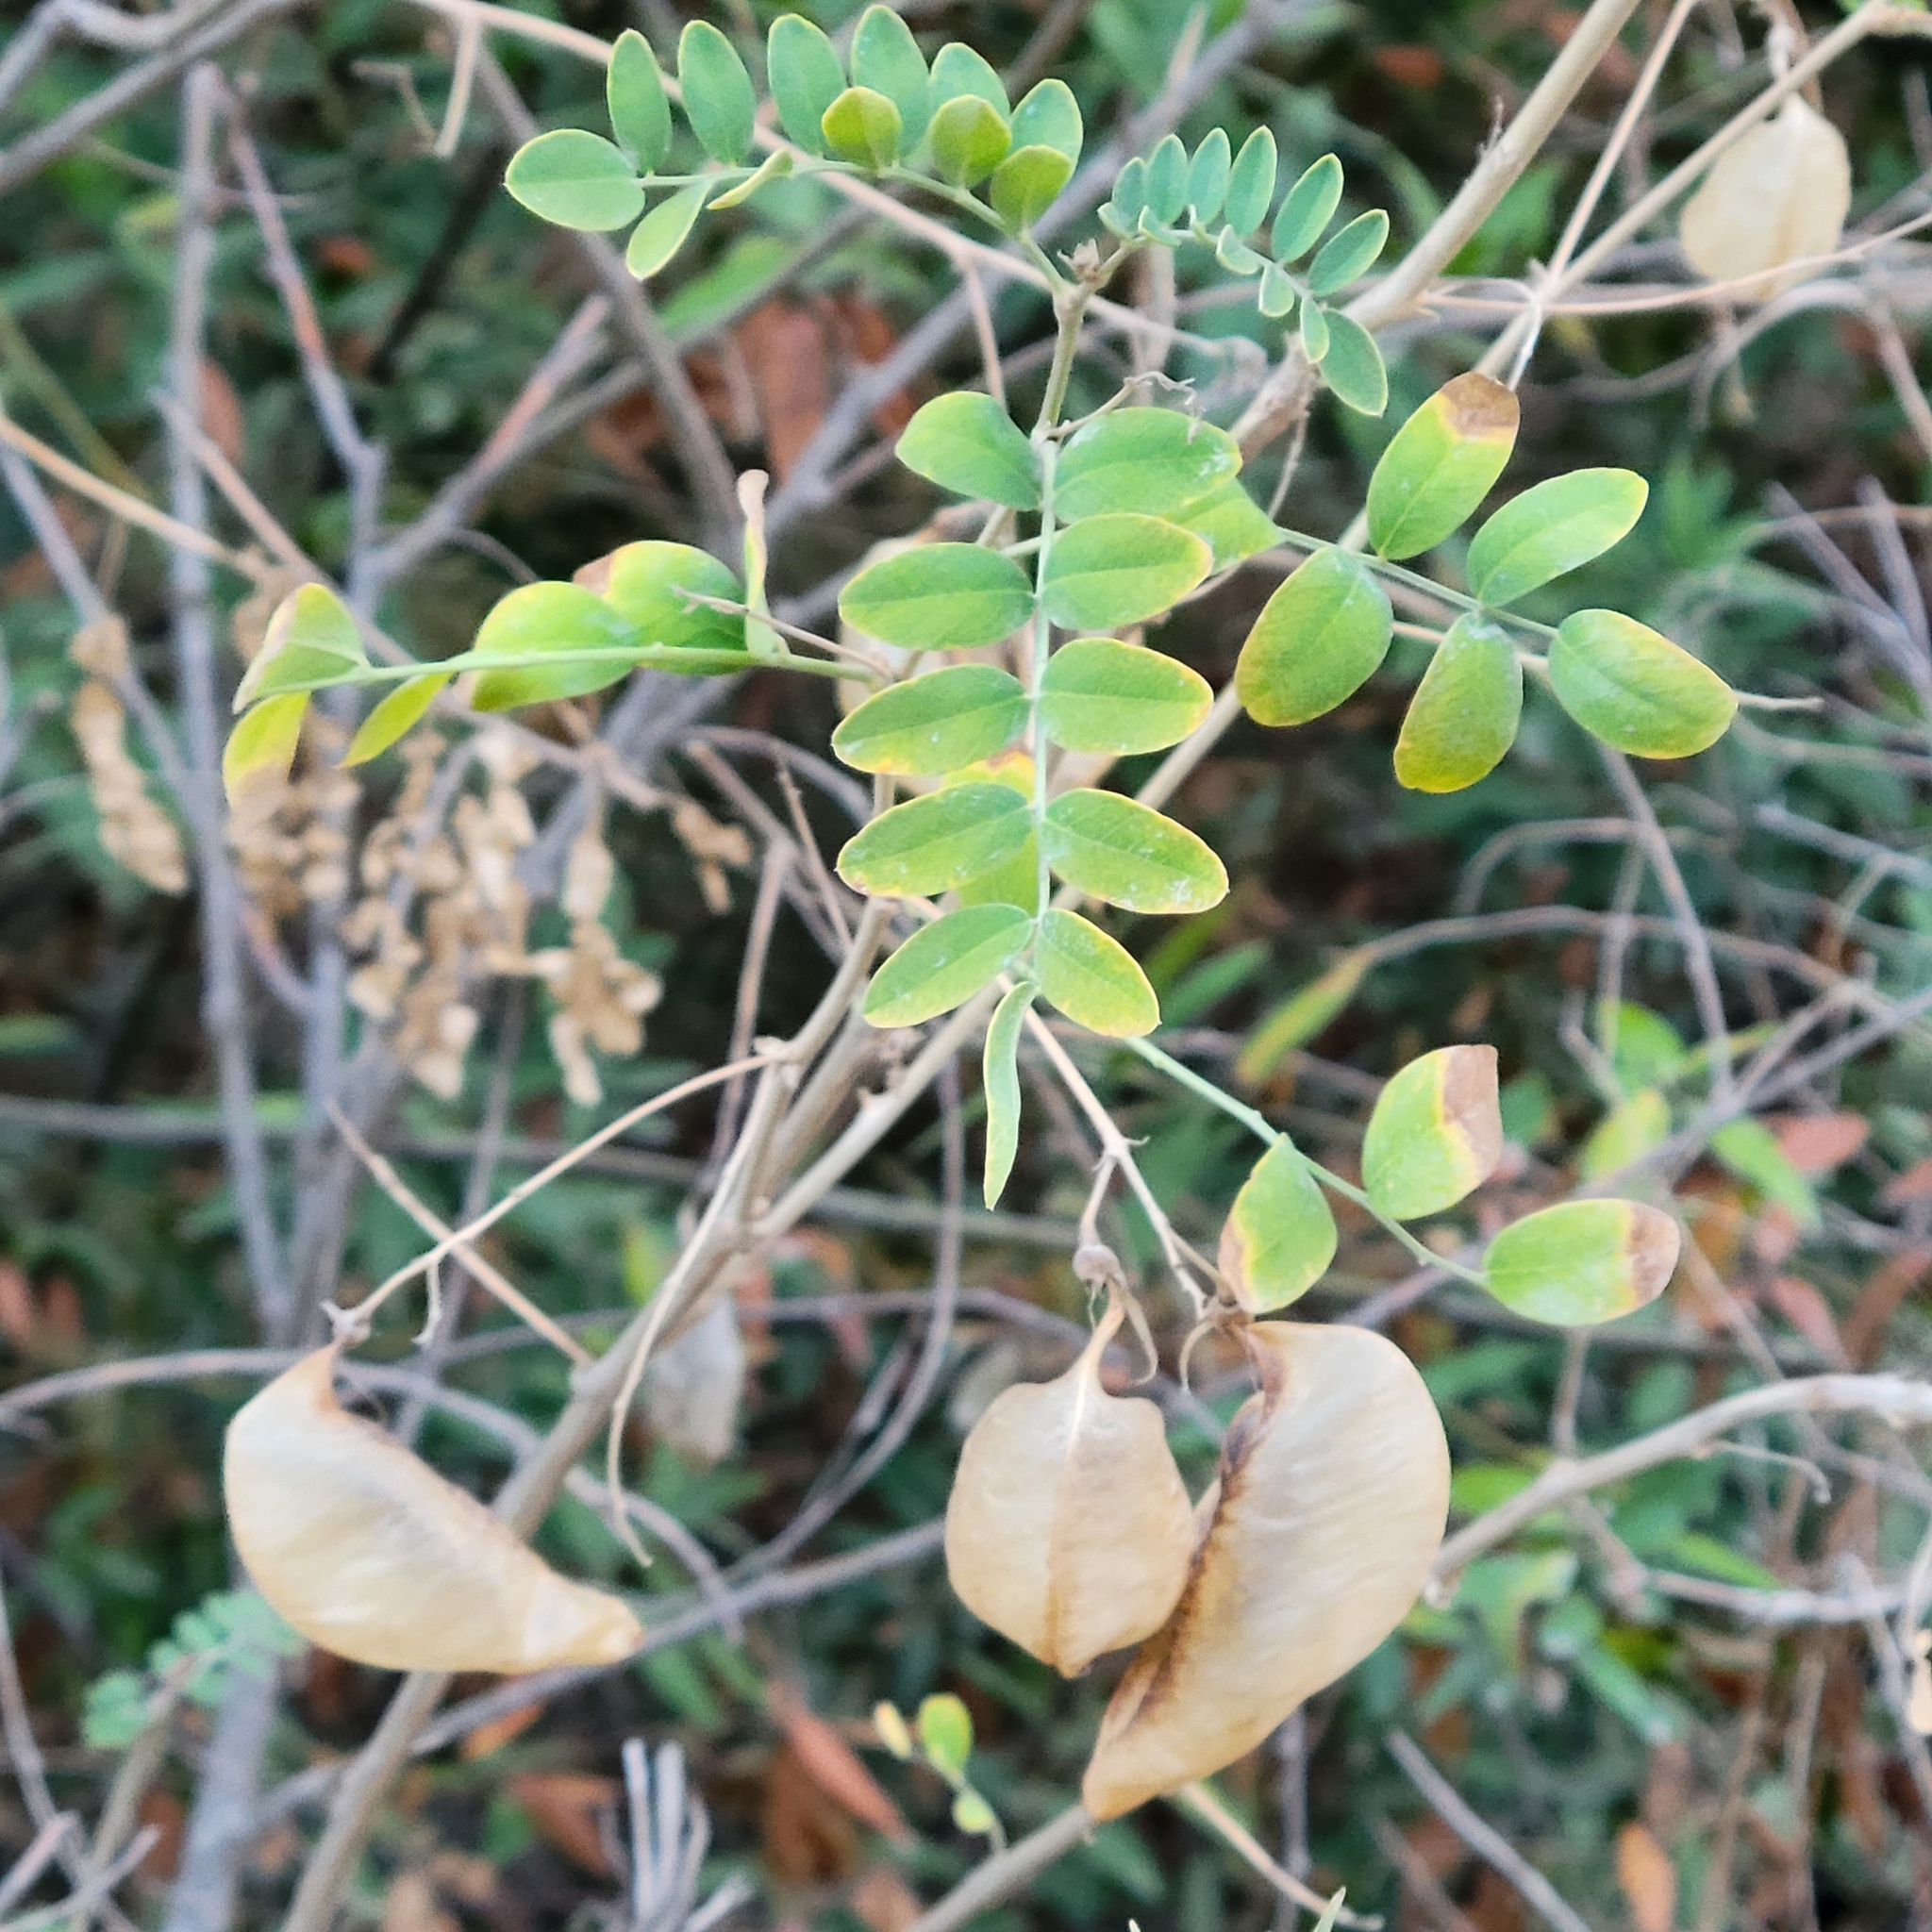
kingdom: Plantae
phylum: Tracheophyta
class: Magnoliopsida
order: Fabales
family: Fabaceae
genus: Colutea
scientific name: Colutea arborescens
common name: Bladder-senna
